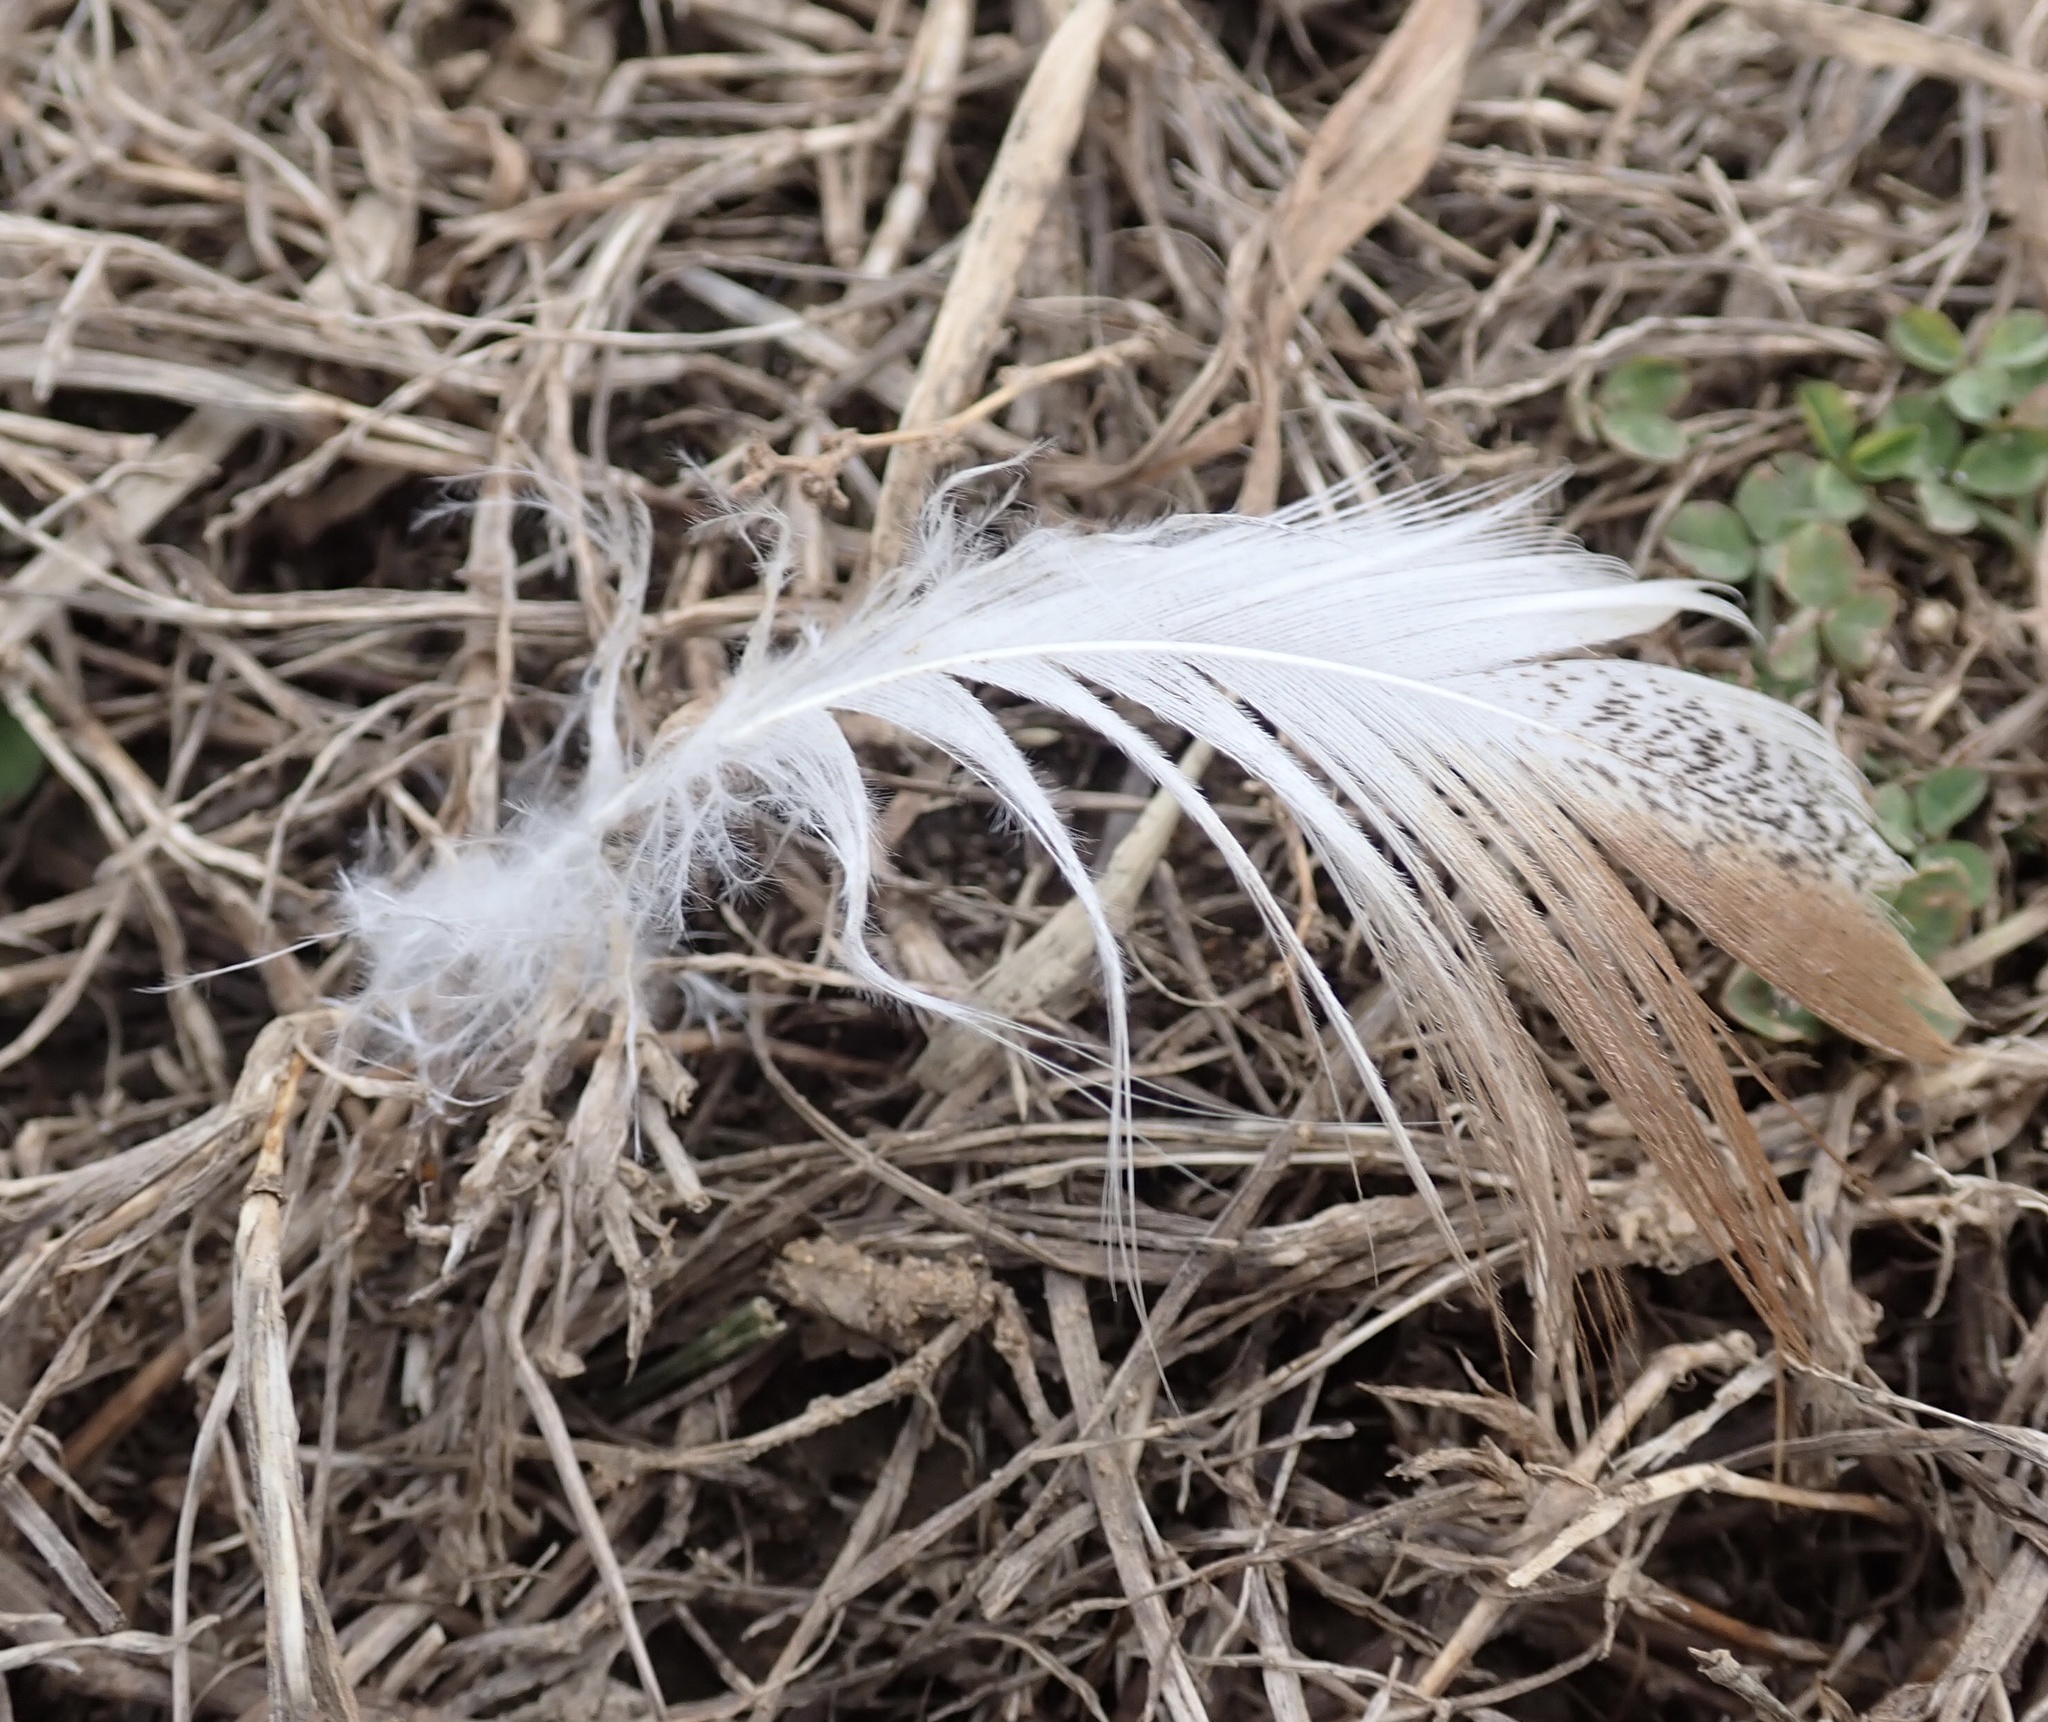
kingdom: Animalia
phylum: Chordata
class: Aves
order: Anseriformes
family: Anatidae
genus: Anas
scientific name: Anas platyrhynchos
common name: Mallard
